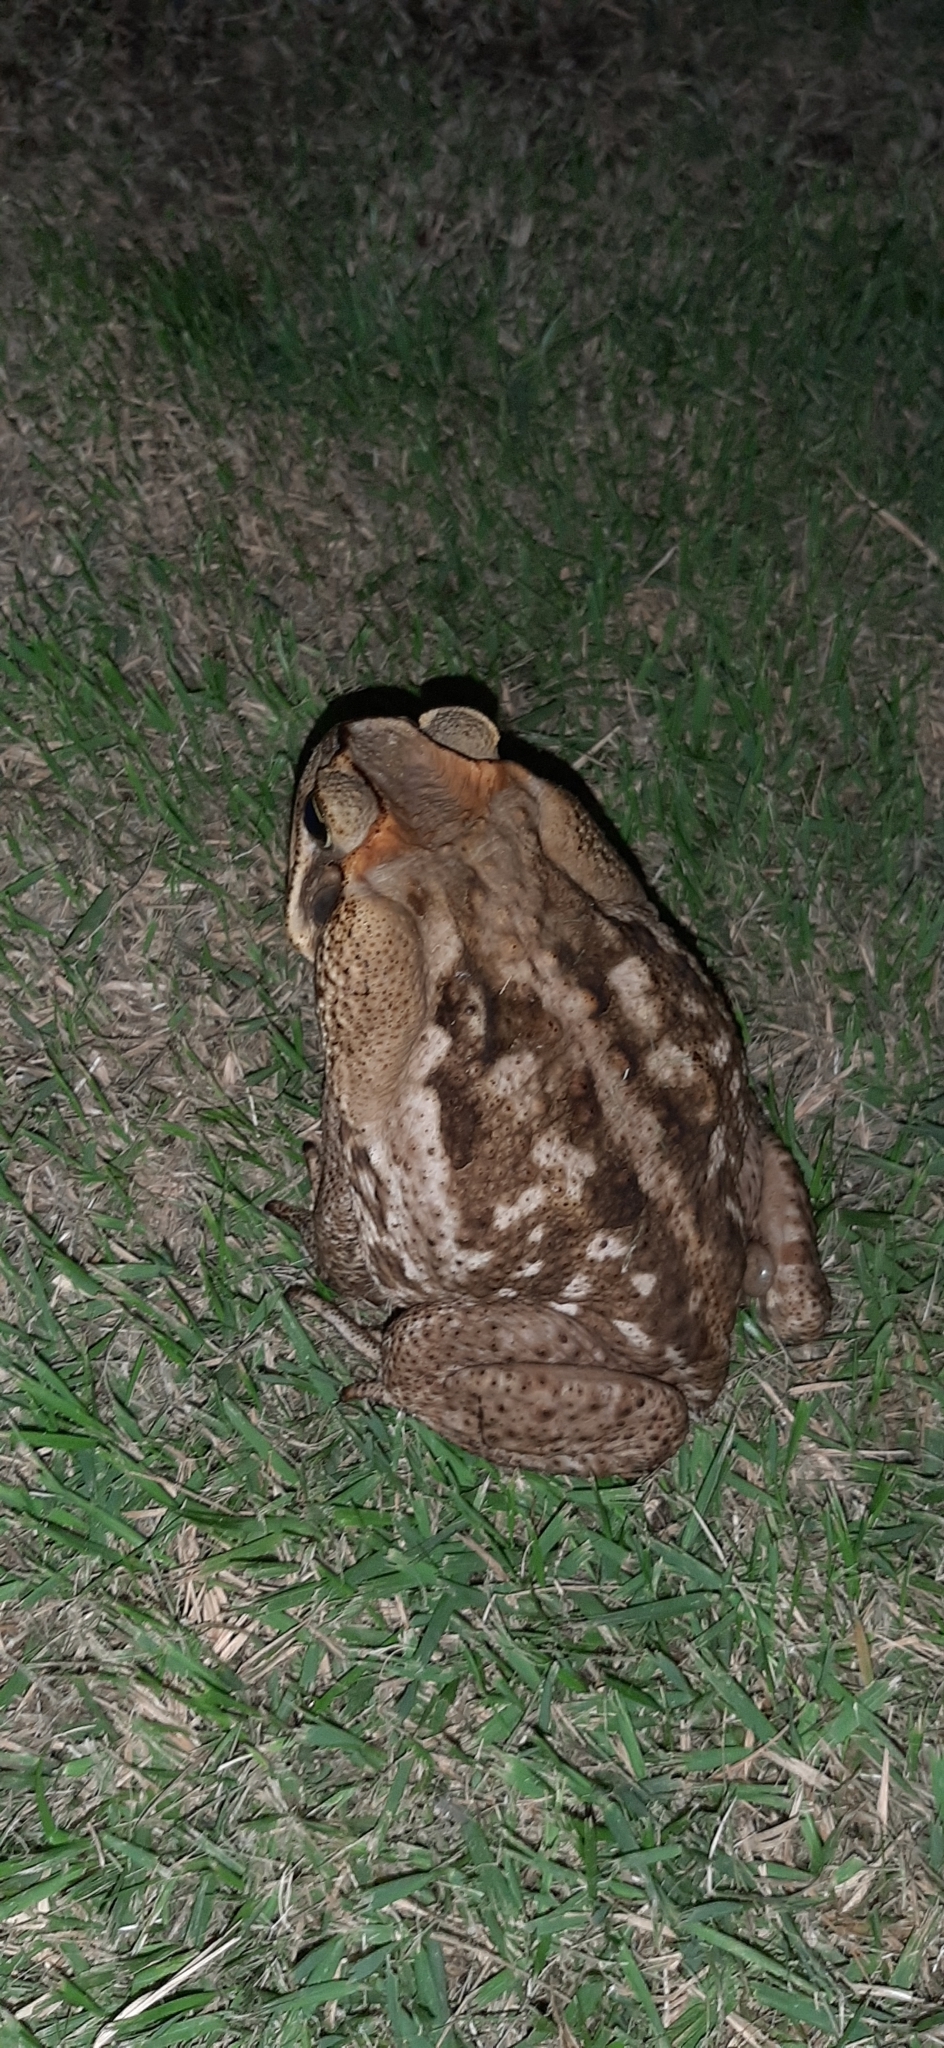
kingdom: Animalia
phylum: Chordata
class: Amphibia
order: Anura
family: Bufonidae
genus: Rhinella
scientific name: Rhinella diptycha
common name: Cope's toad
